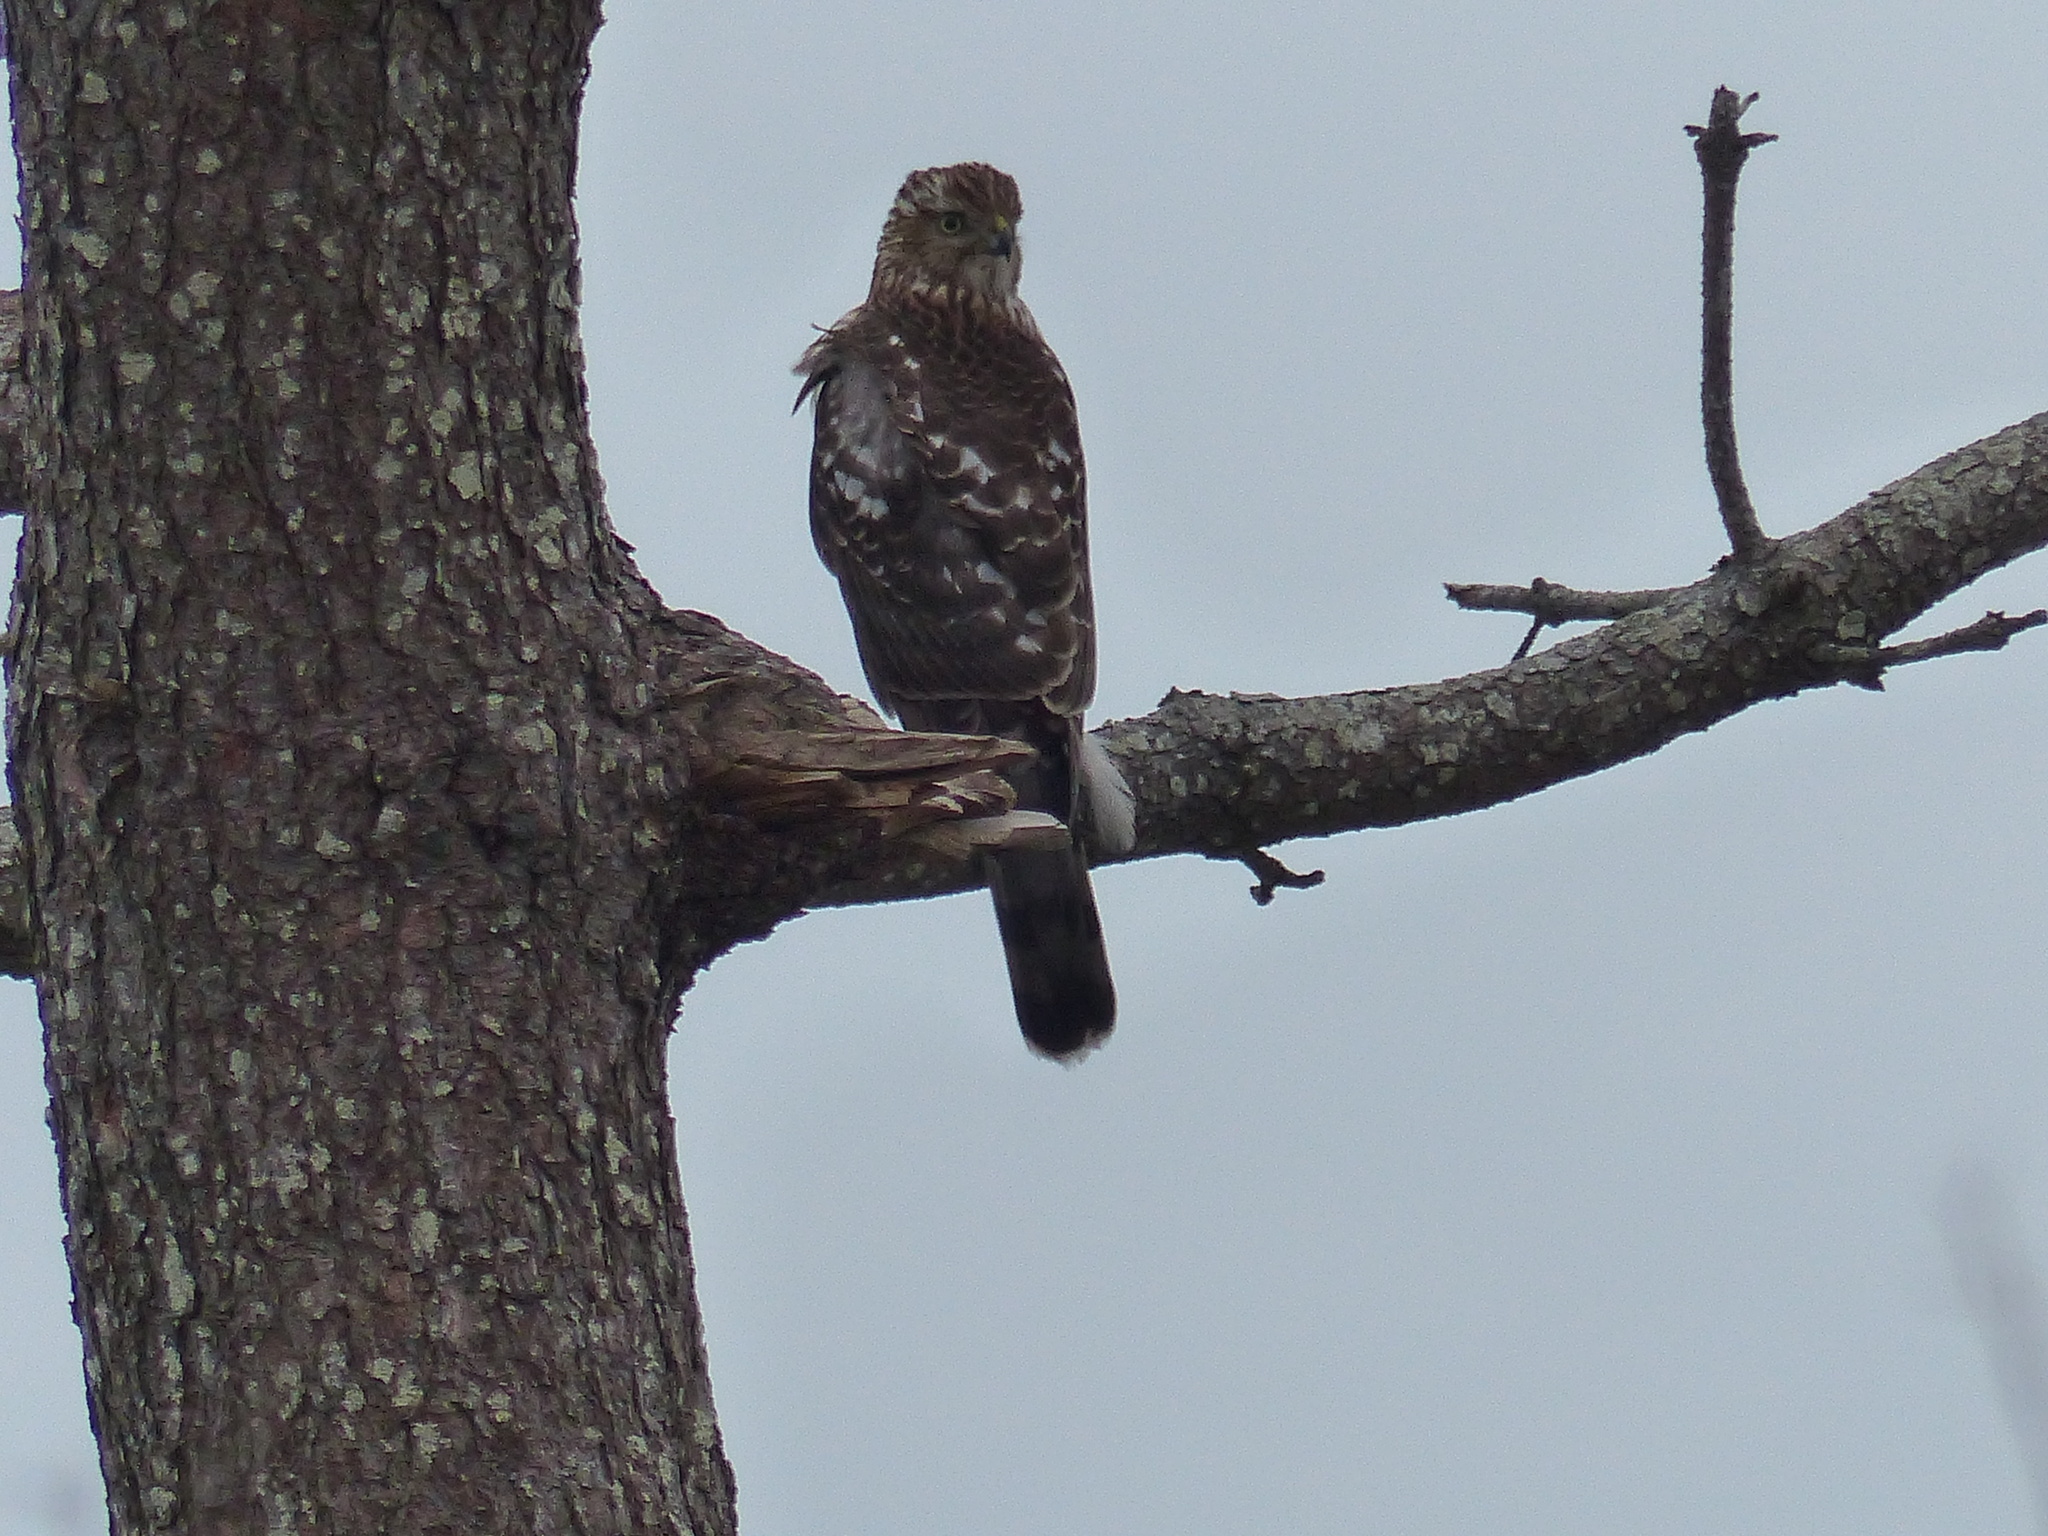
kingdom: Animalia
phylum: Chordata
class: Aves
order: Accipitriformes
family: Accipitridae
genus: Accipiter
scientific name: Accipiter cooperii
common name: Cooper's hawk
